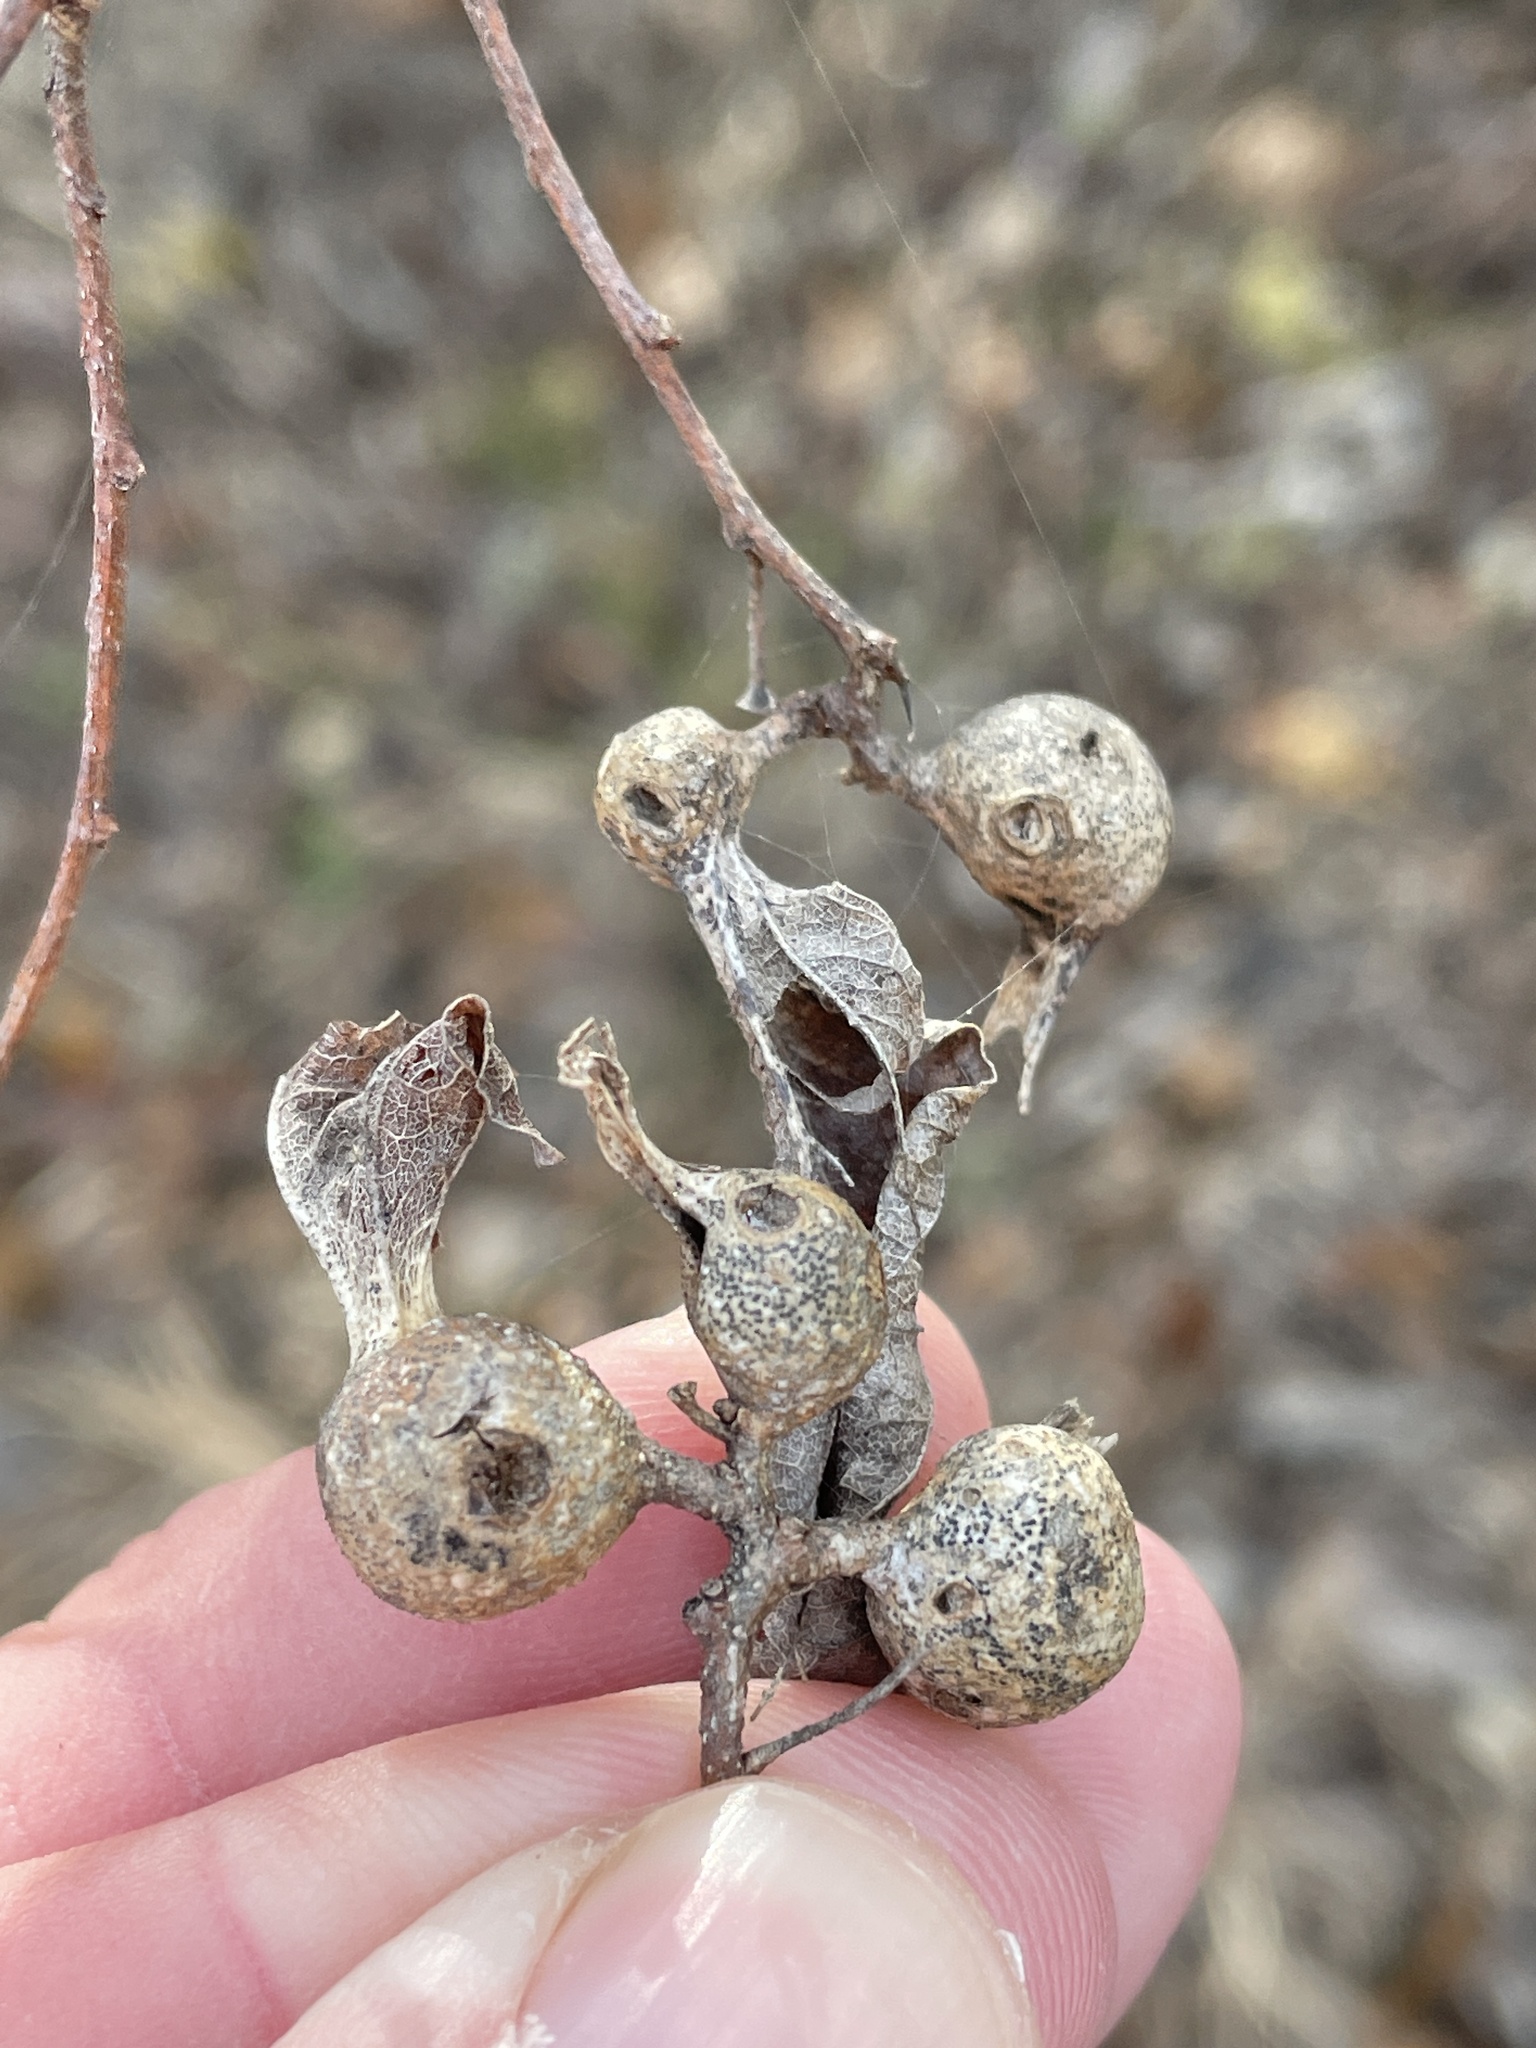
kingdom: Animalia
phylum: Arthropoda
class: Insecta
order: Hemiptera
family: Aphalaridae
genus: Pachypsylla
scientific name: Pachypsylla venusta
